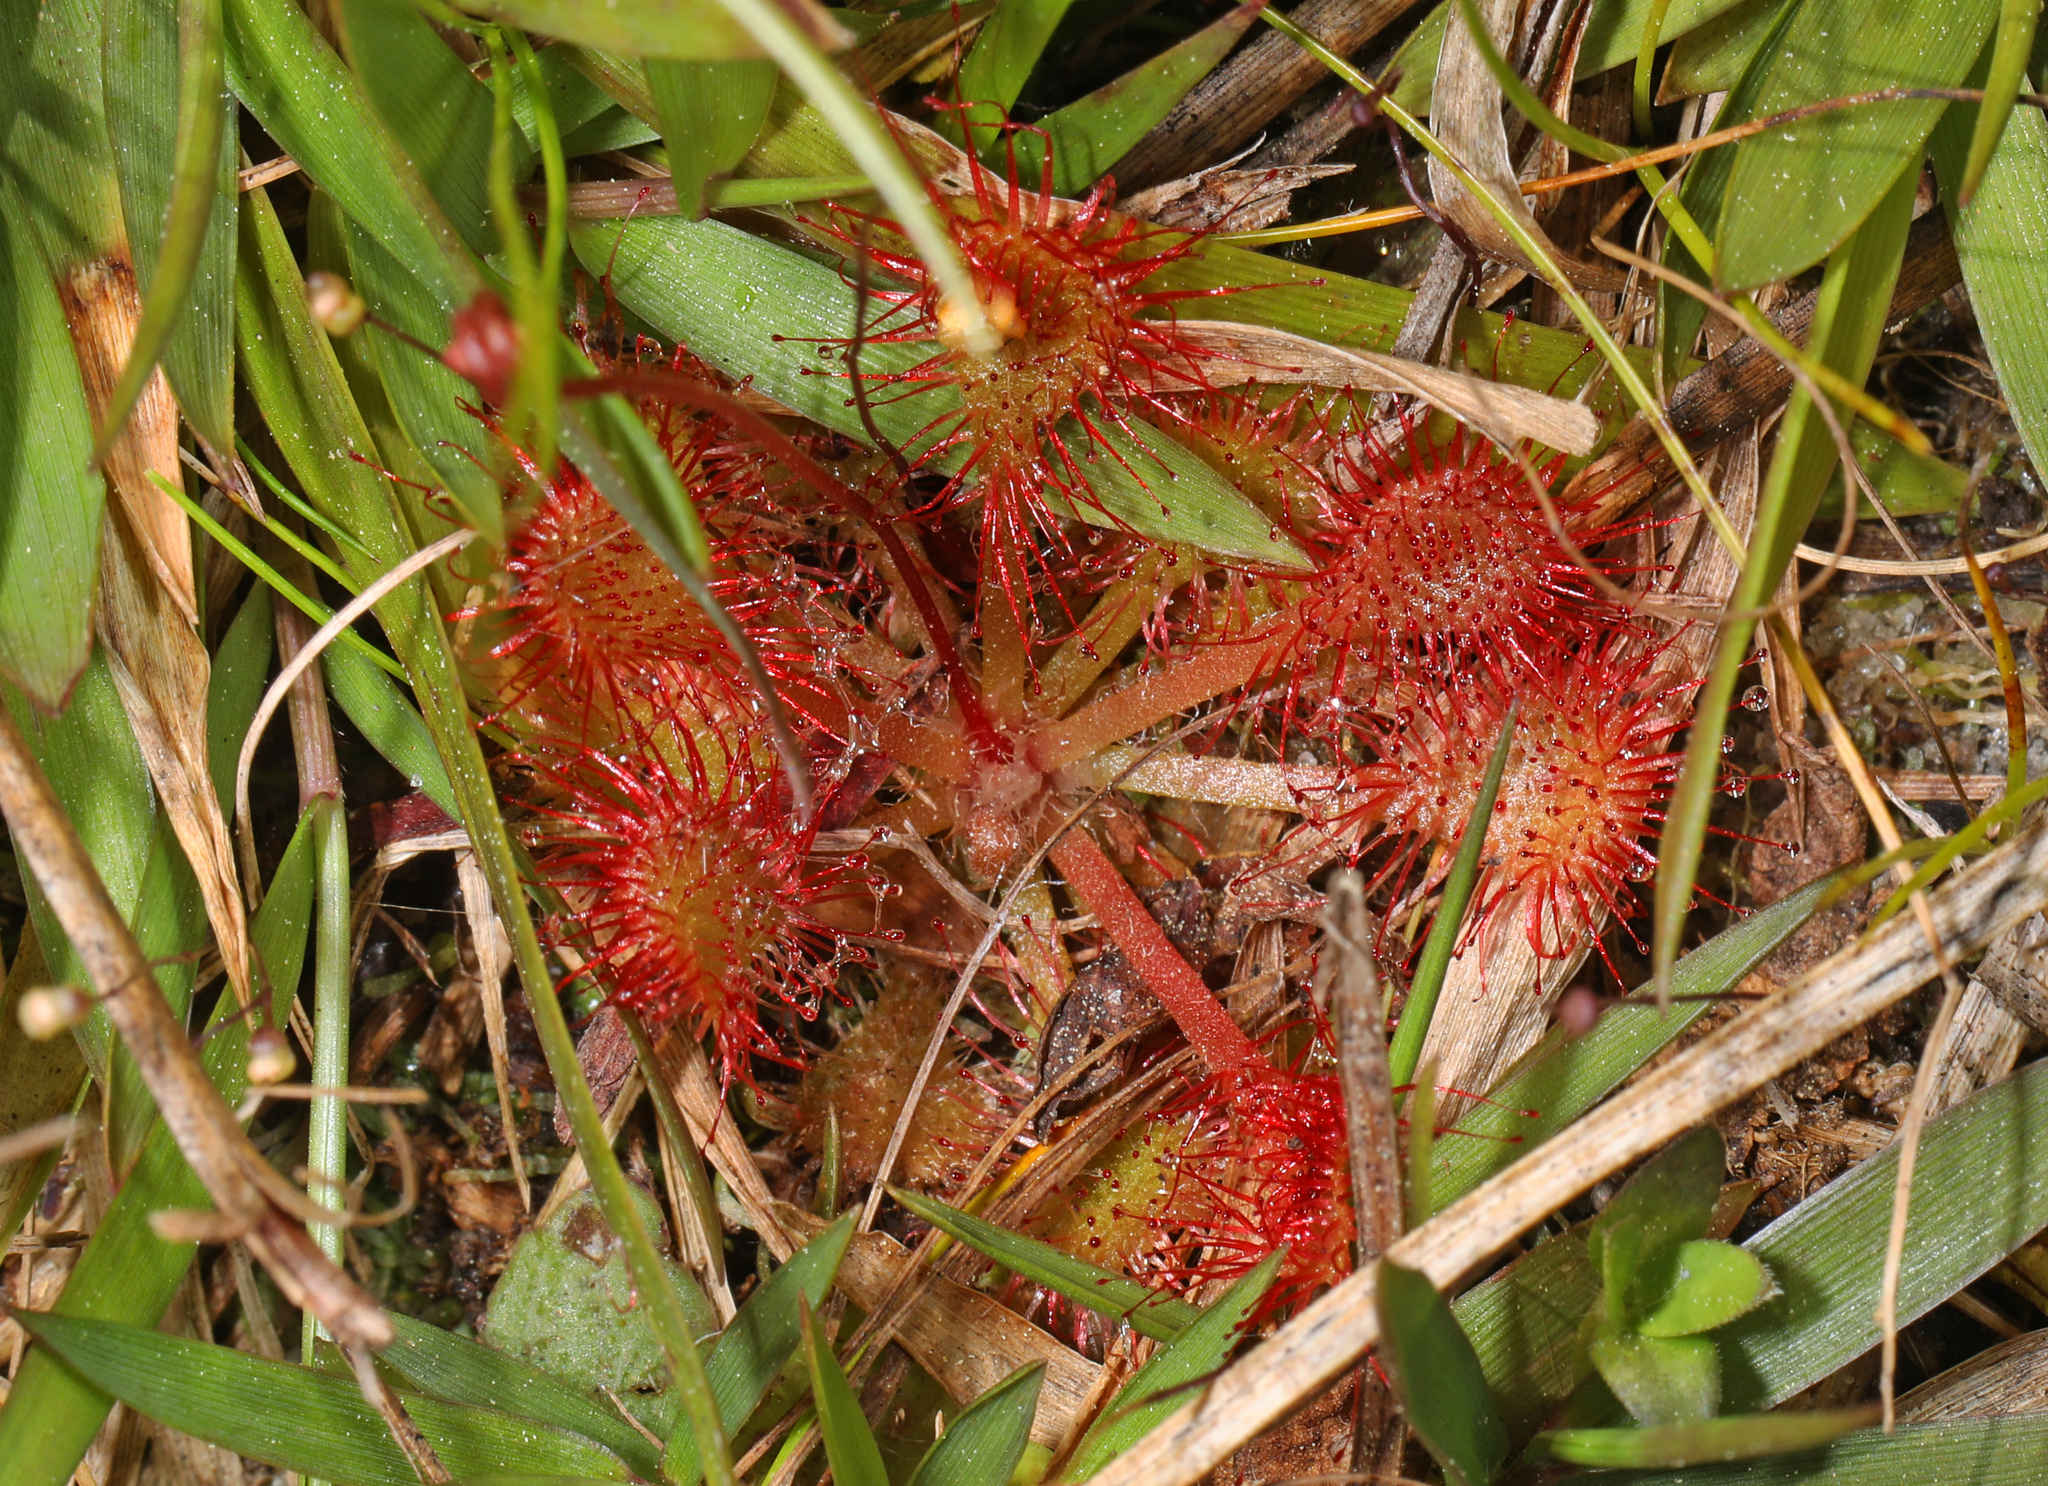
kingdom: Plantae
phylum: Tracheophyta
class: Magnoliopsida
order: Caryophyllales
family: Droseraceae
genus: Drosera
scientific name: Drosera capillaris
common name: Pink sundew
